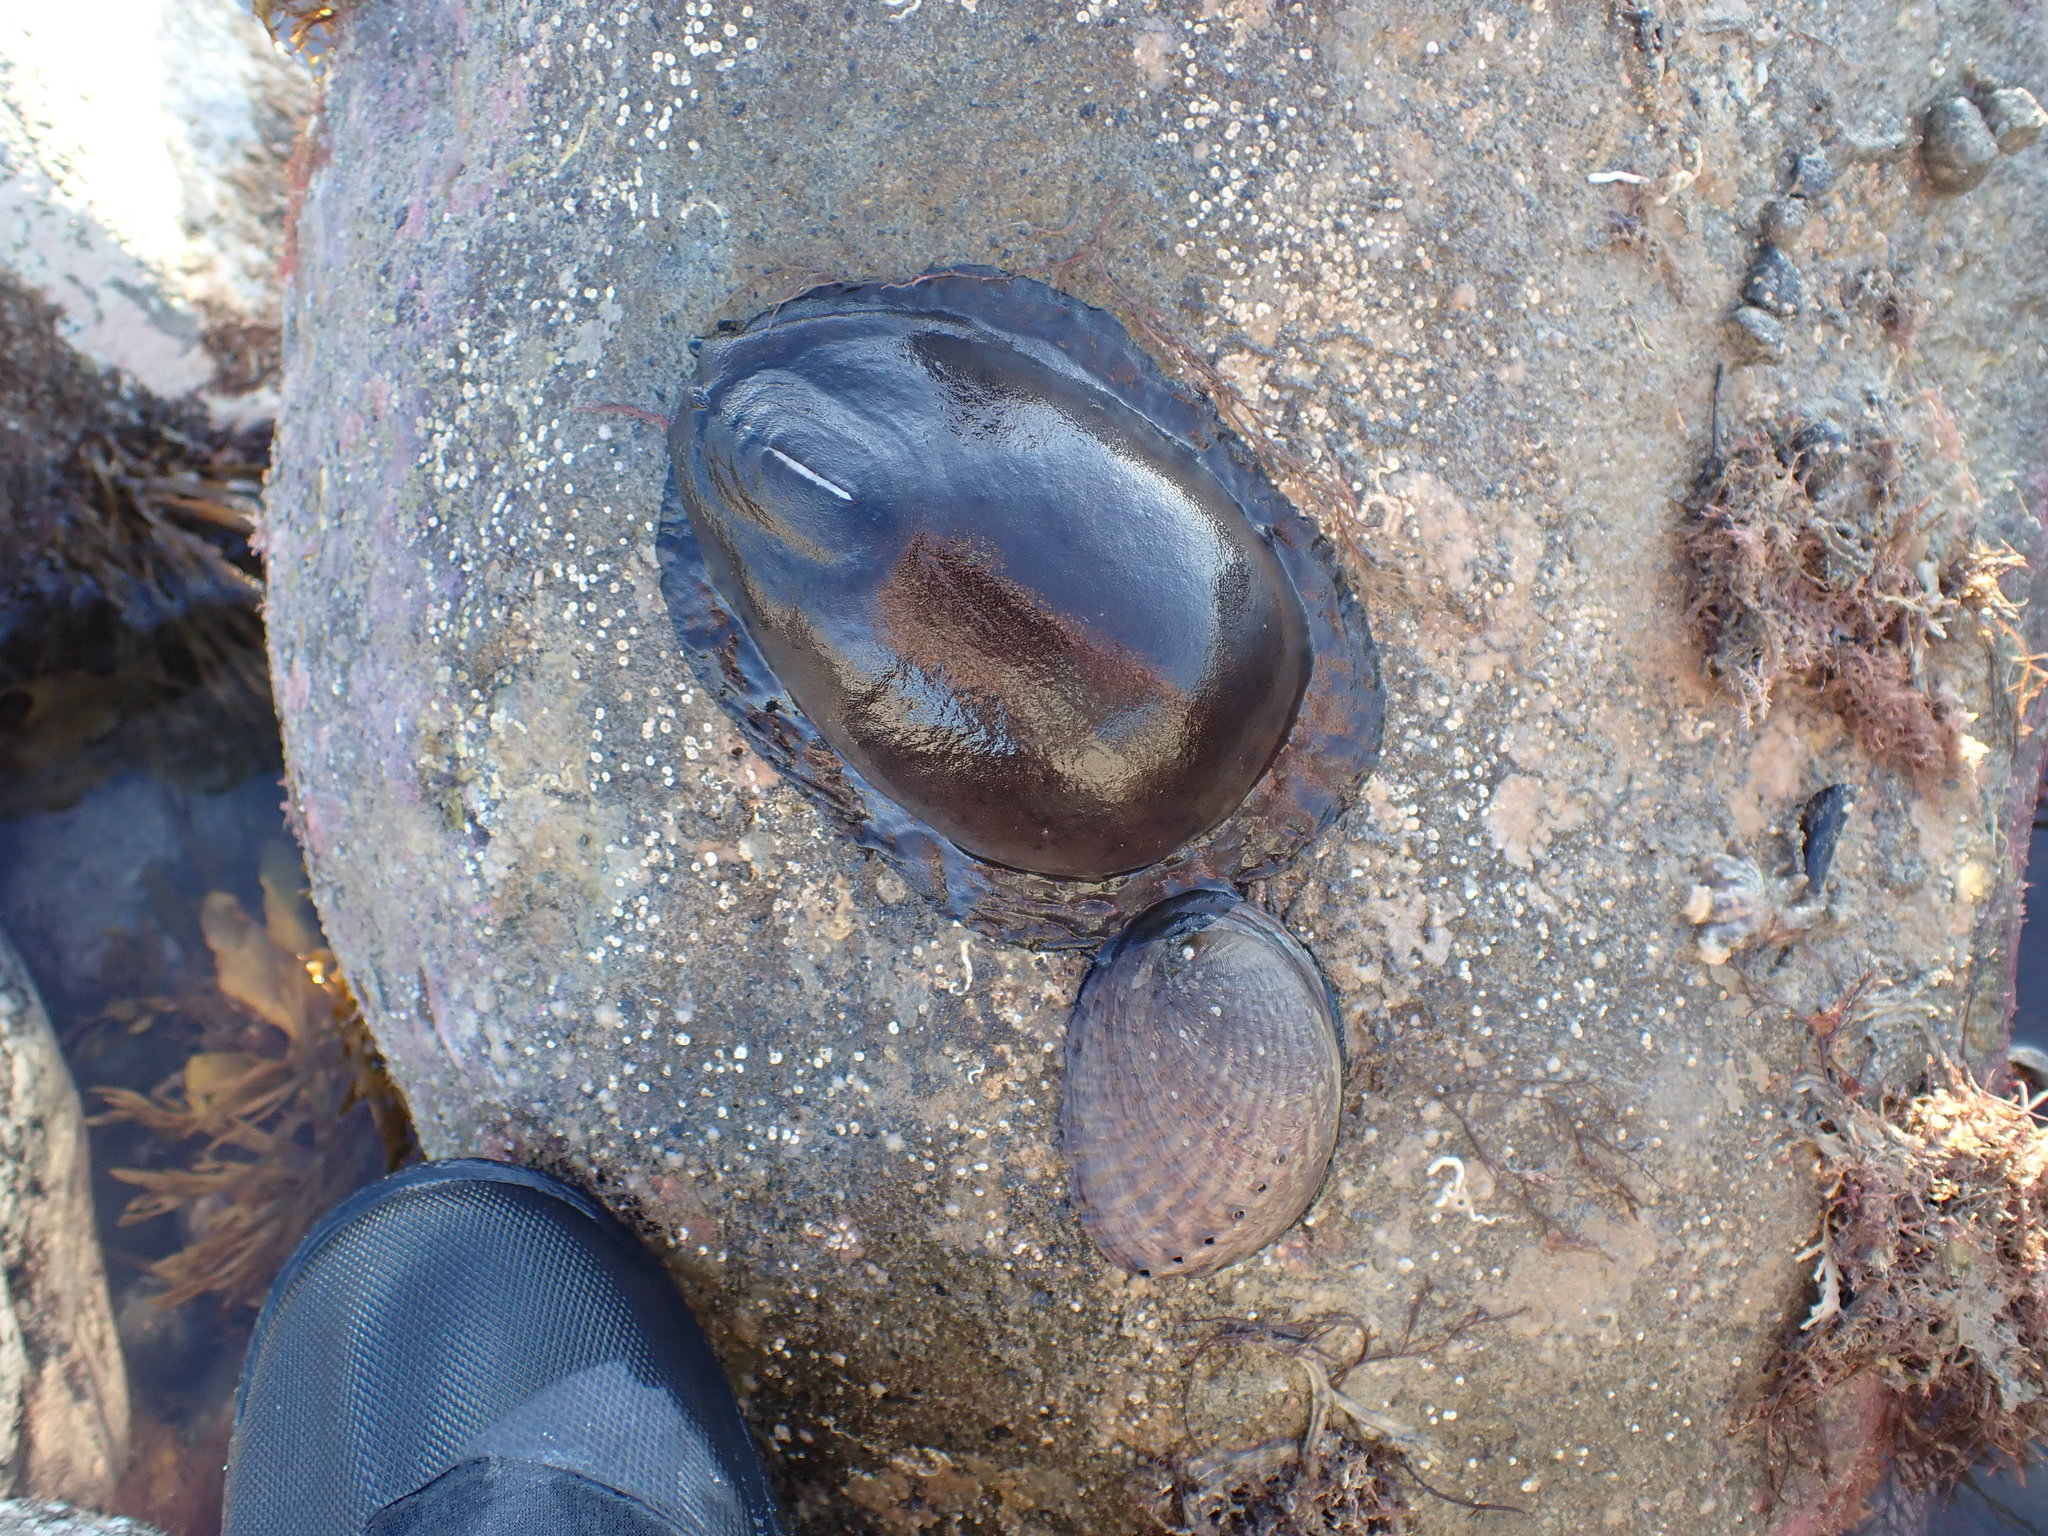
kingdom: Animalia
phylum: Mollusca
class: Gastropoda
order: Lepetellida
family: Fissurellidae
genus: Scutus
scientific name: Scutus breviculus
